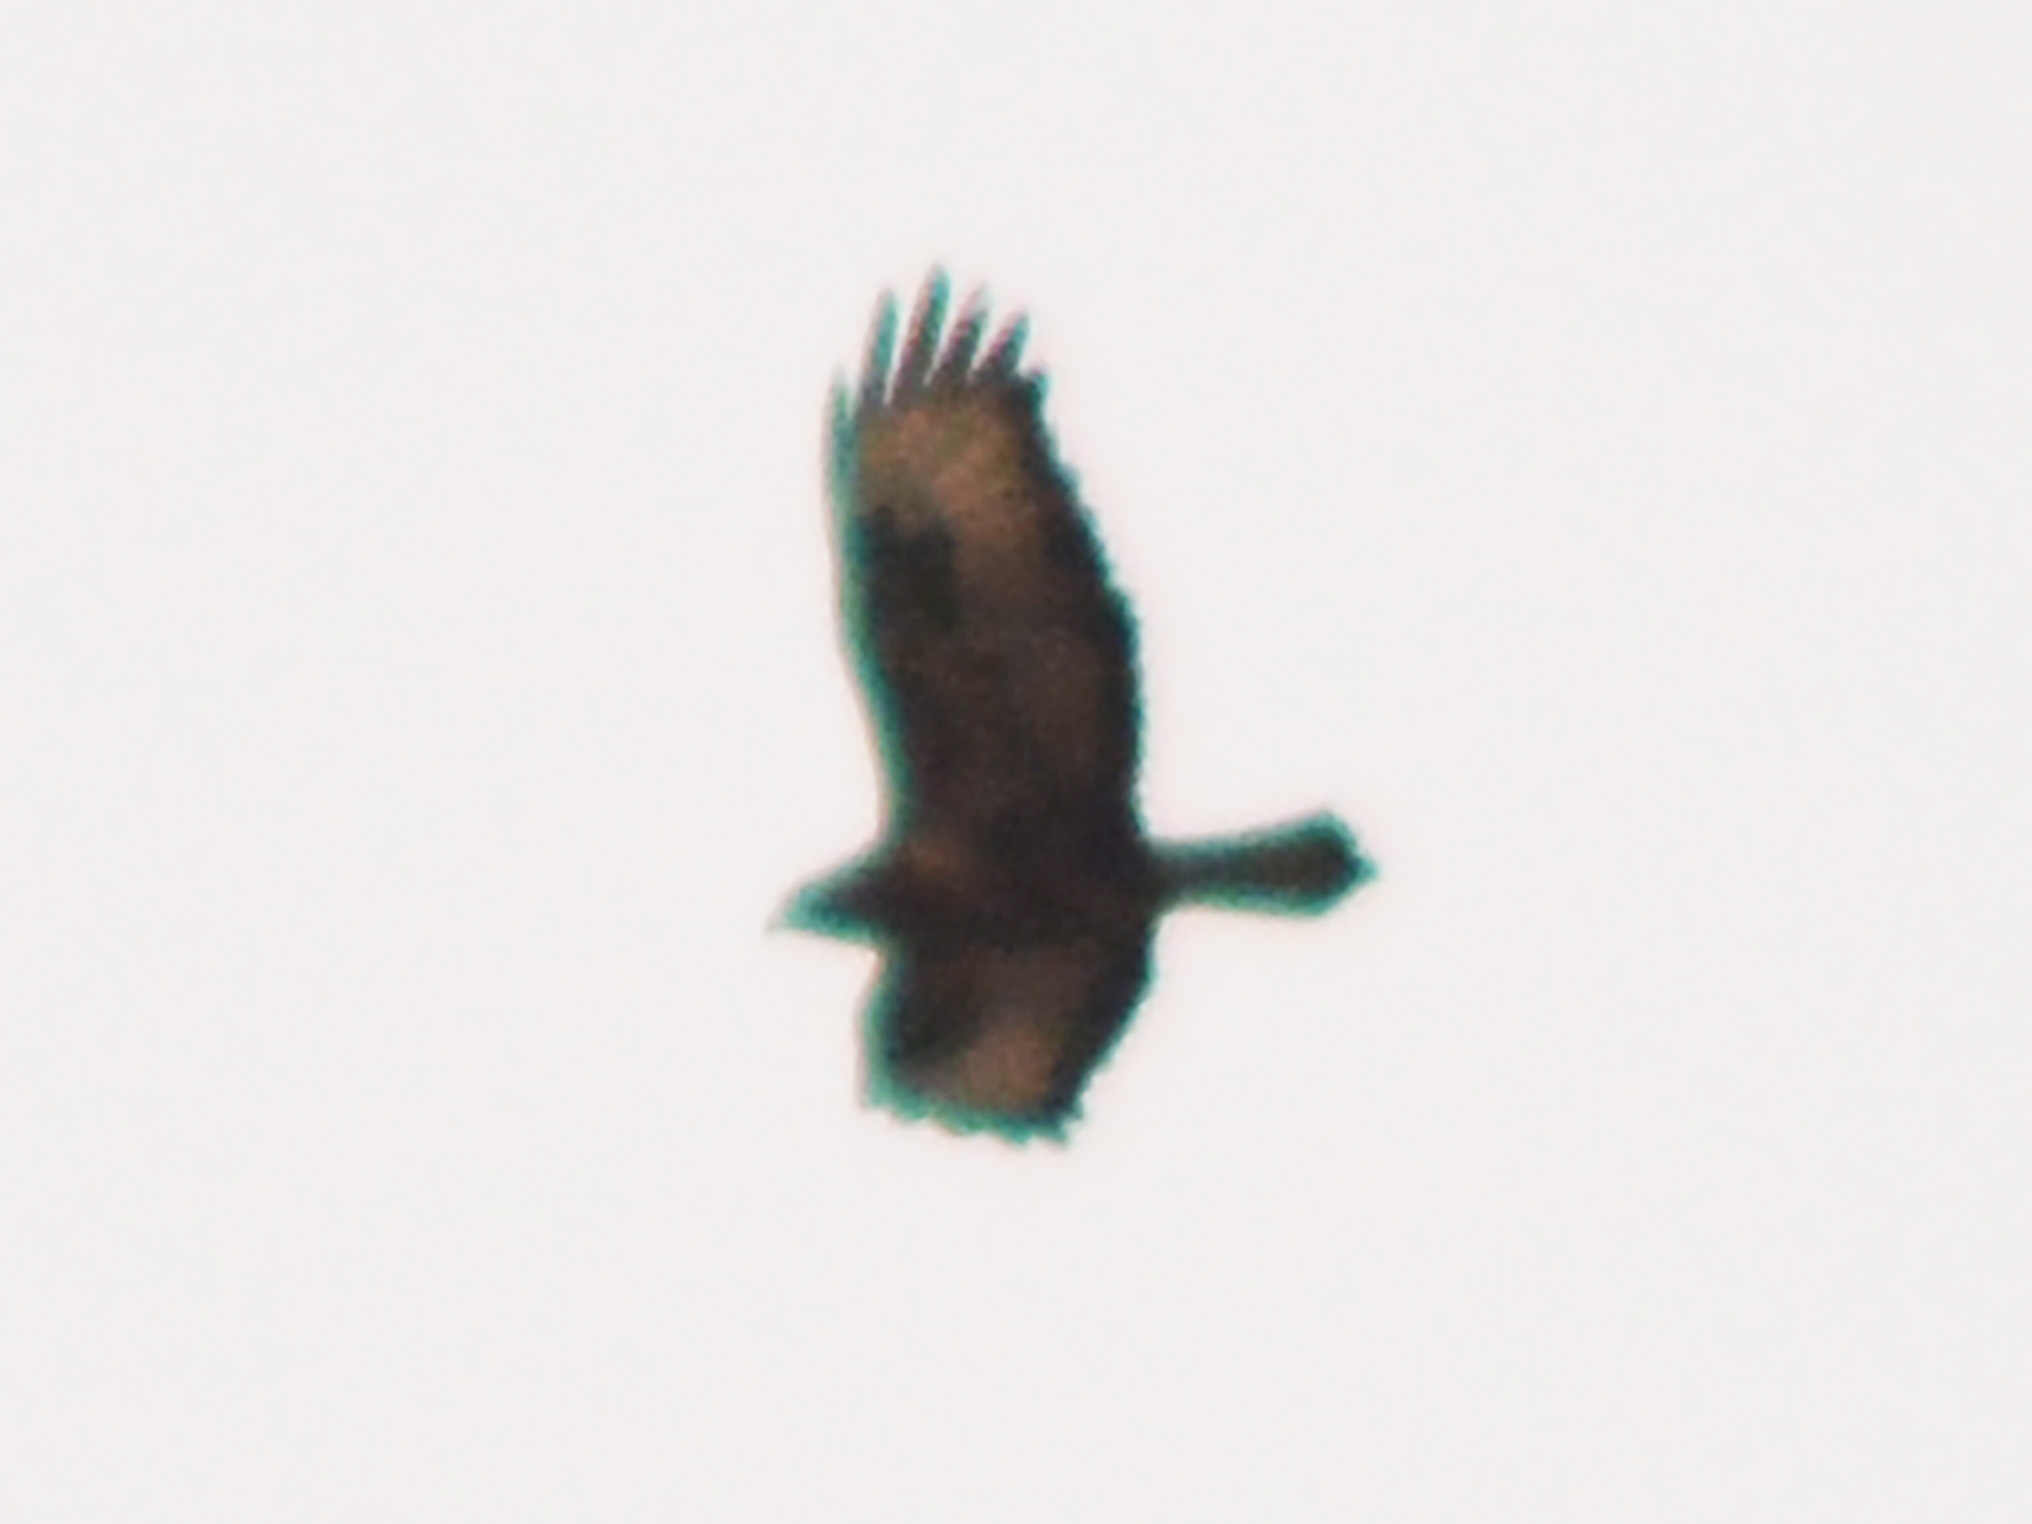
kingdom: Animalia
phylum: Chordata
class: Aves
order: Accipitriformes
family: Accipitridae
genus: Buteo
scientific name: Buteo buteo
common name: Common buzzard
